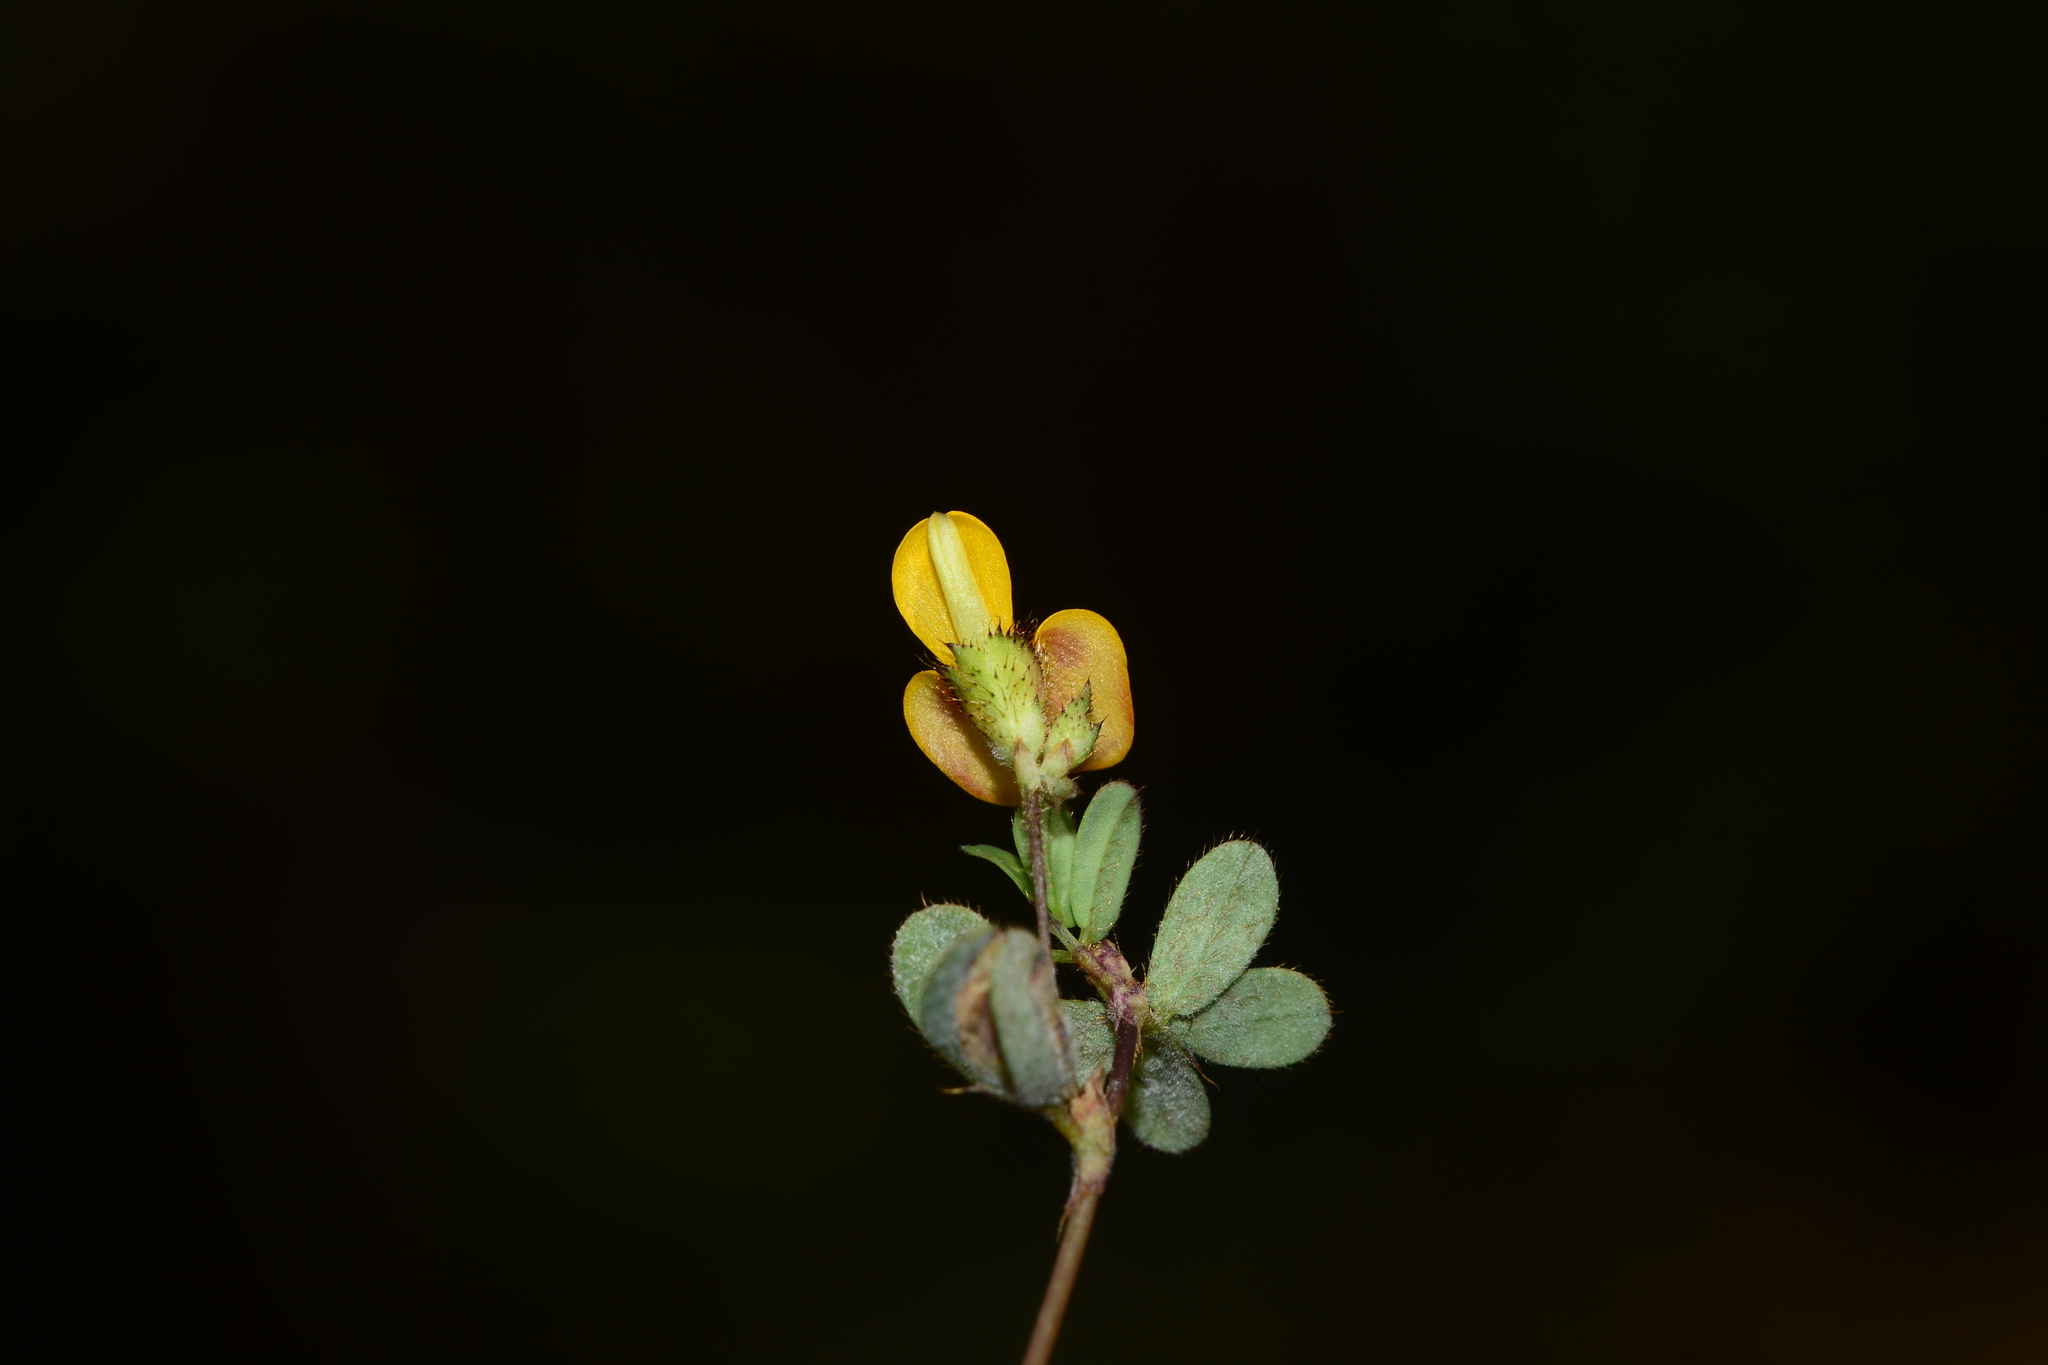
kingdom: Plantae
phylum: Tracheophyta
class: Magnoliopsida
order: Fabales
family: Fabaceae
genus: Smithia
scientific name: Smithia bigemina
